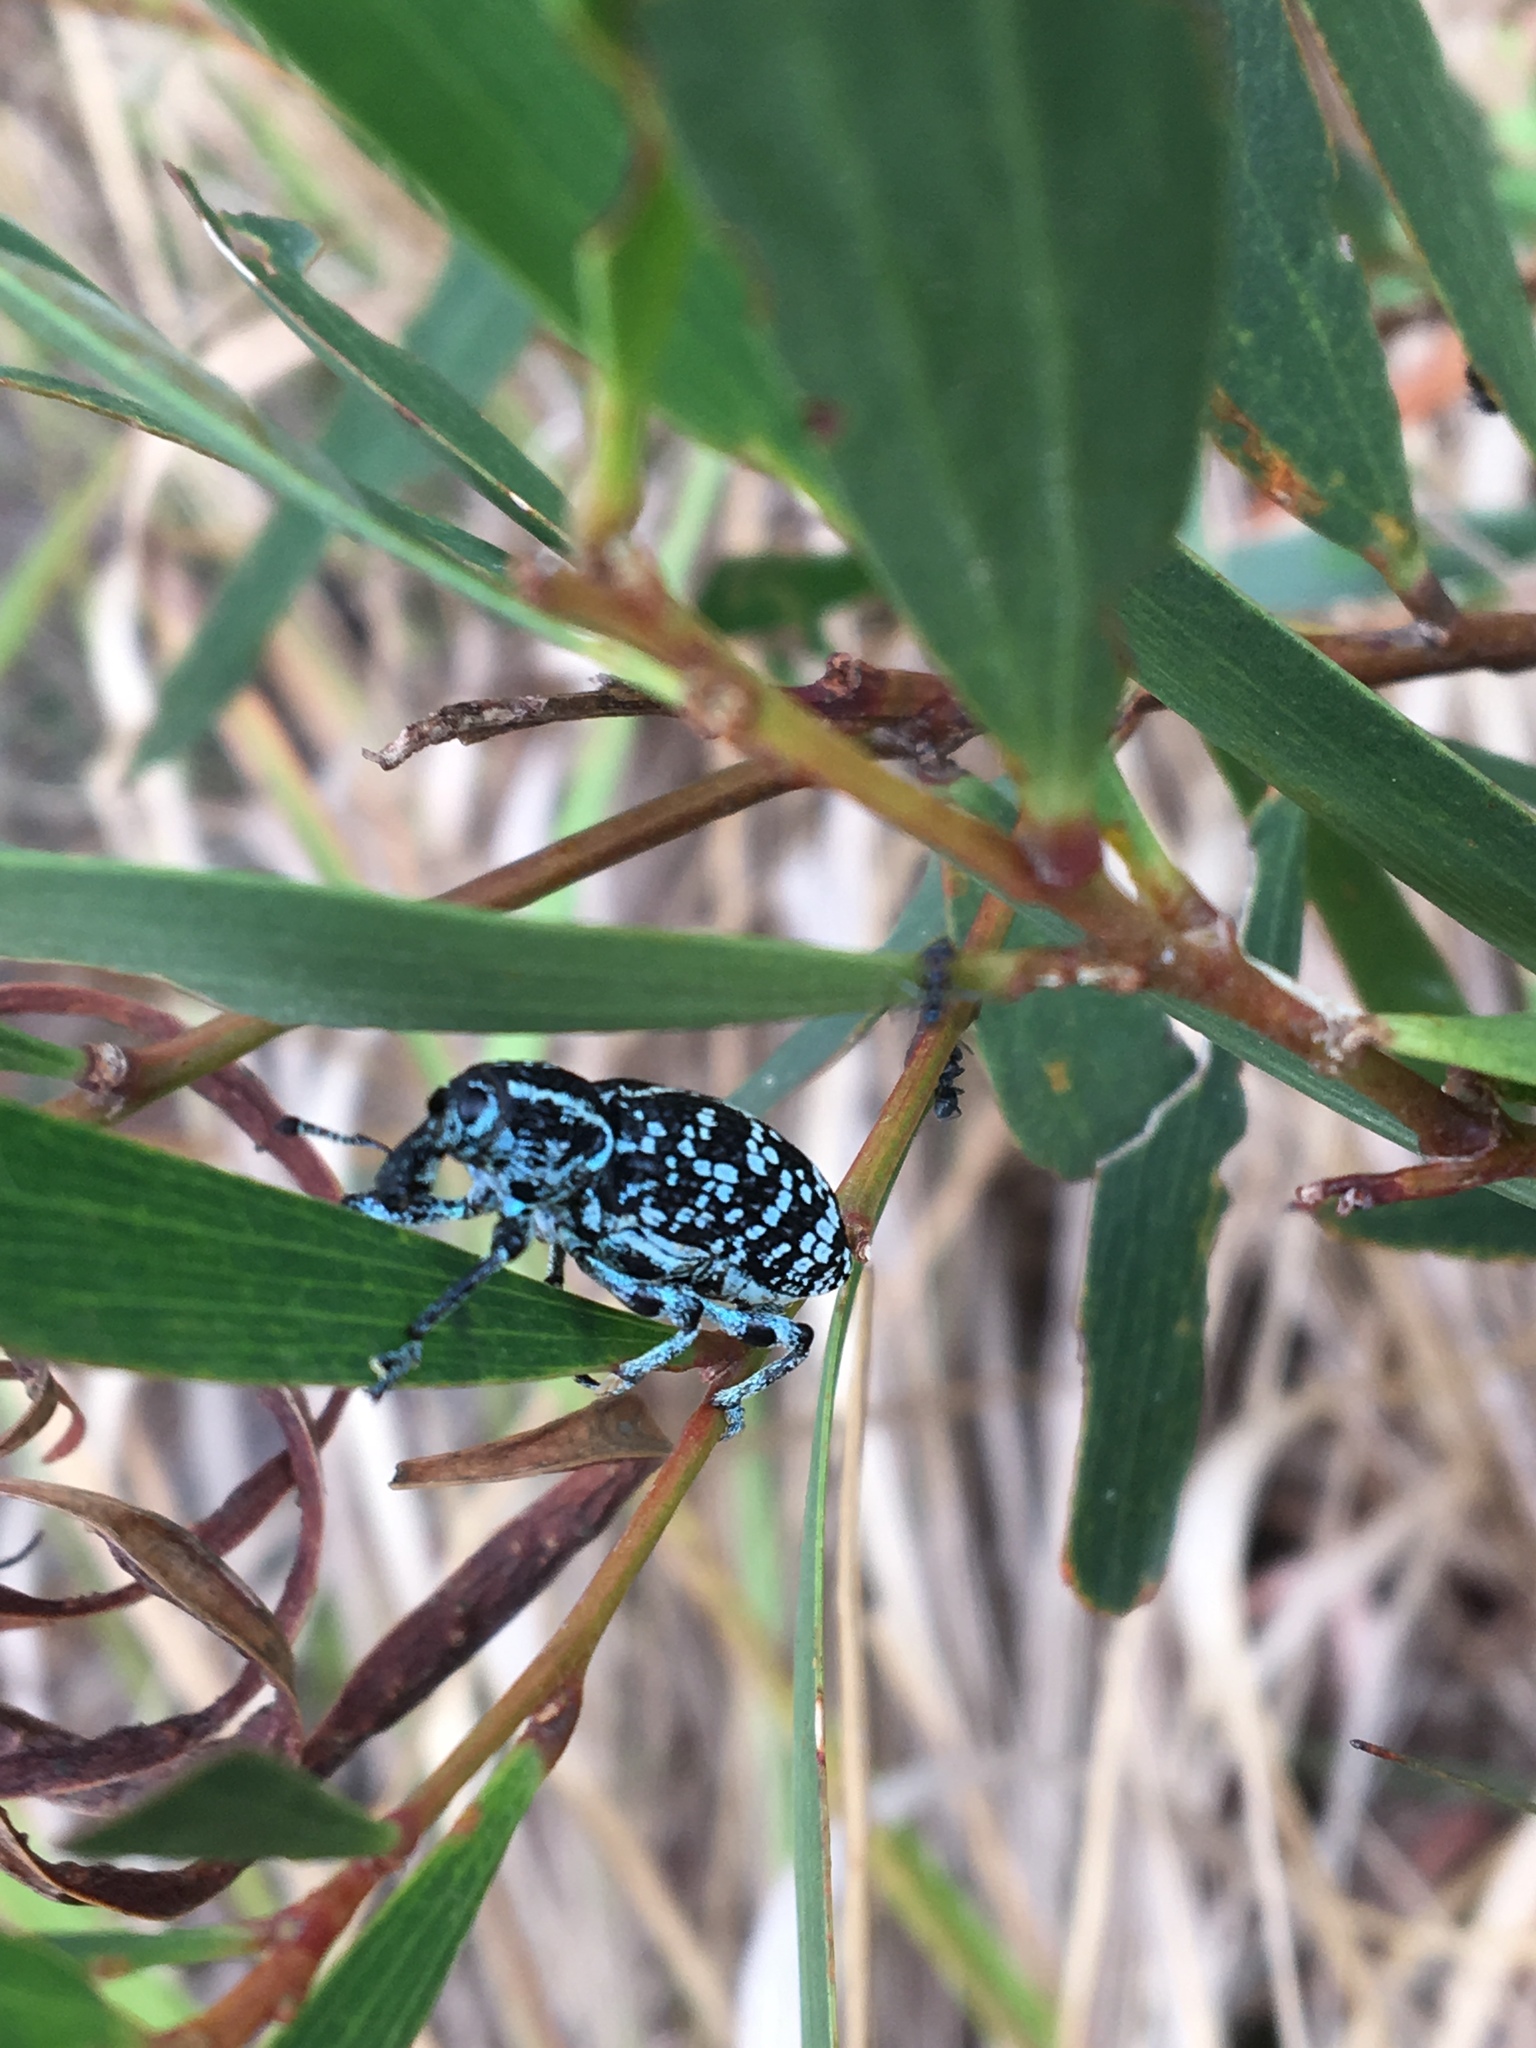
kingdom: Animalia
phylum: Arthropoda
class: Insecta
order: Coleoptera
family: Curculionidae
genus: Chrysolopus
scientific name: Chrysolopus spectabilis
